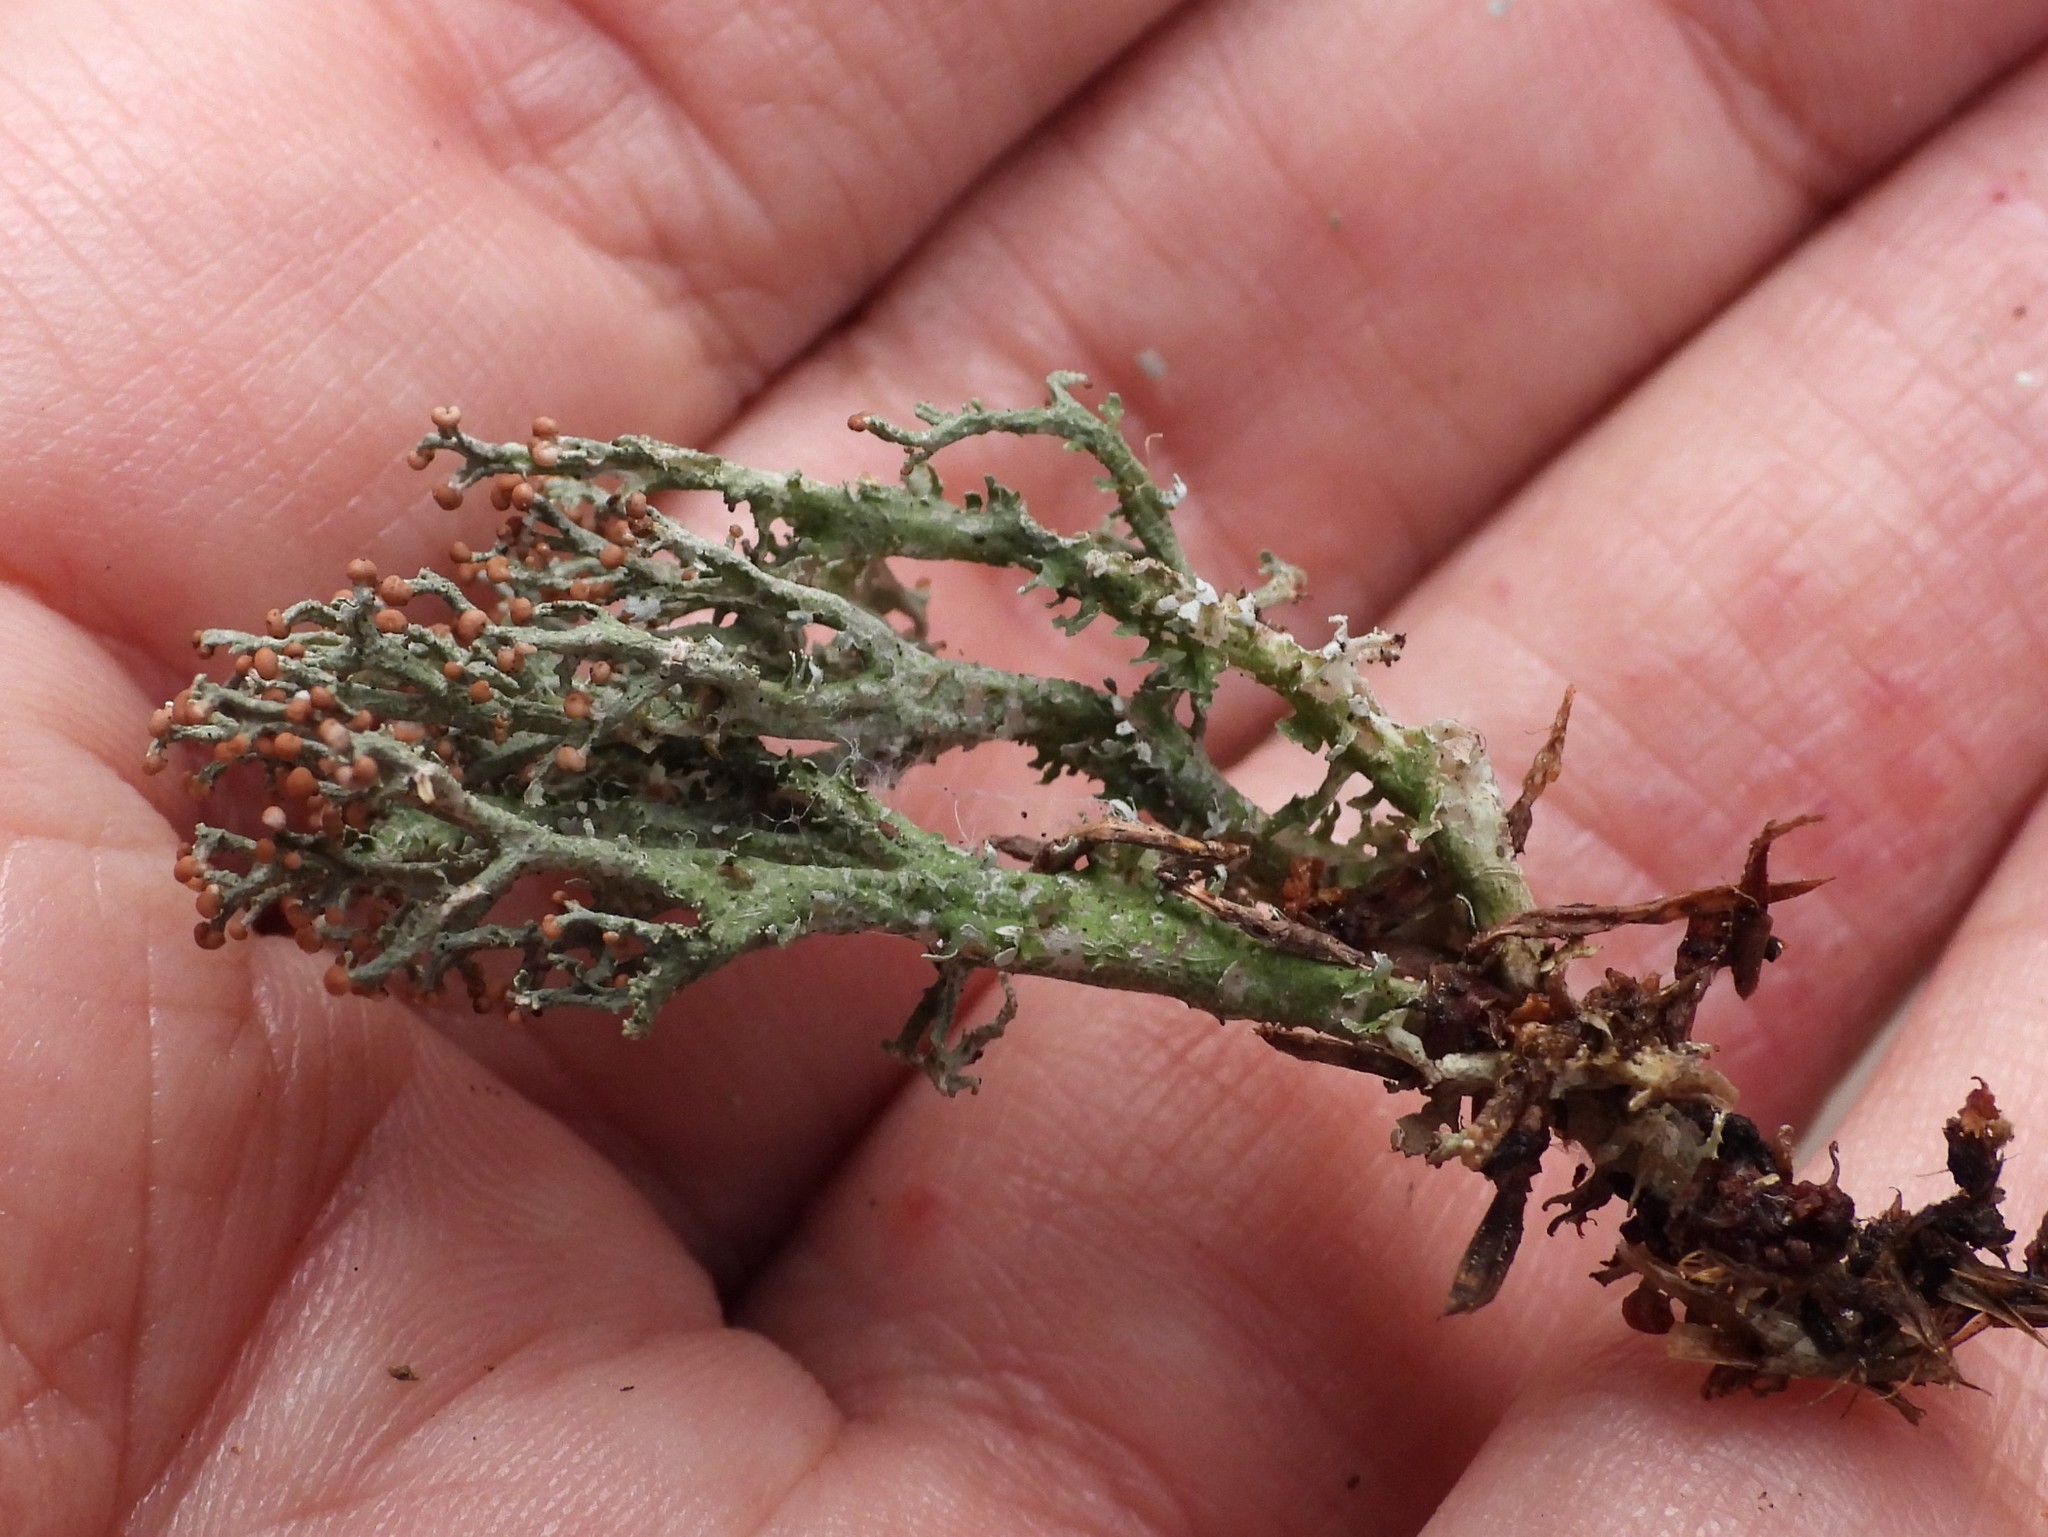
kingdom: Fungi
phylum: Ascomycota
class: Lecanoromycetes
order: Lecanorales
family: Cladoniaceae
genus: Cladonia
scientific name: Cladonia furcata
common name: Many-forked cladonia
